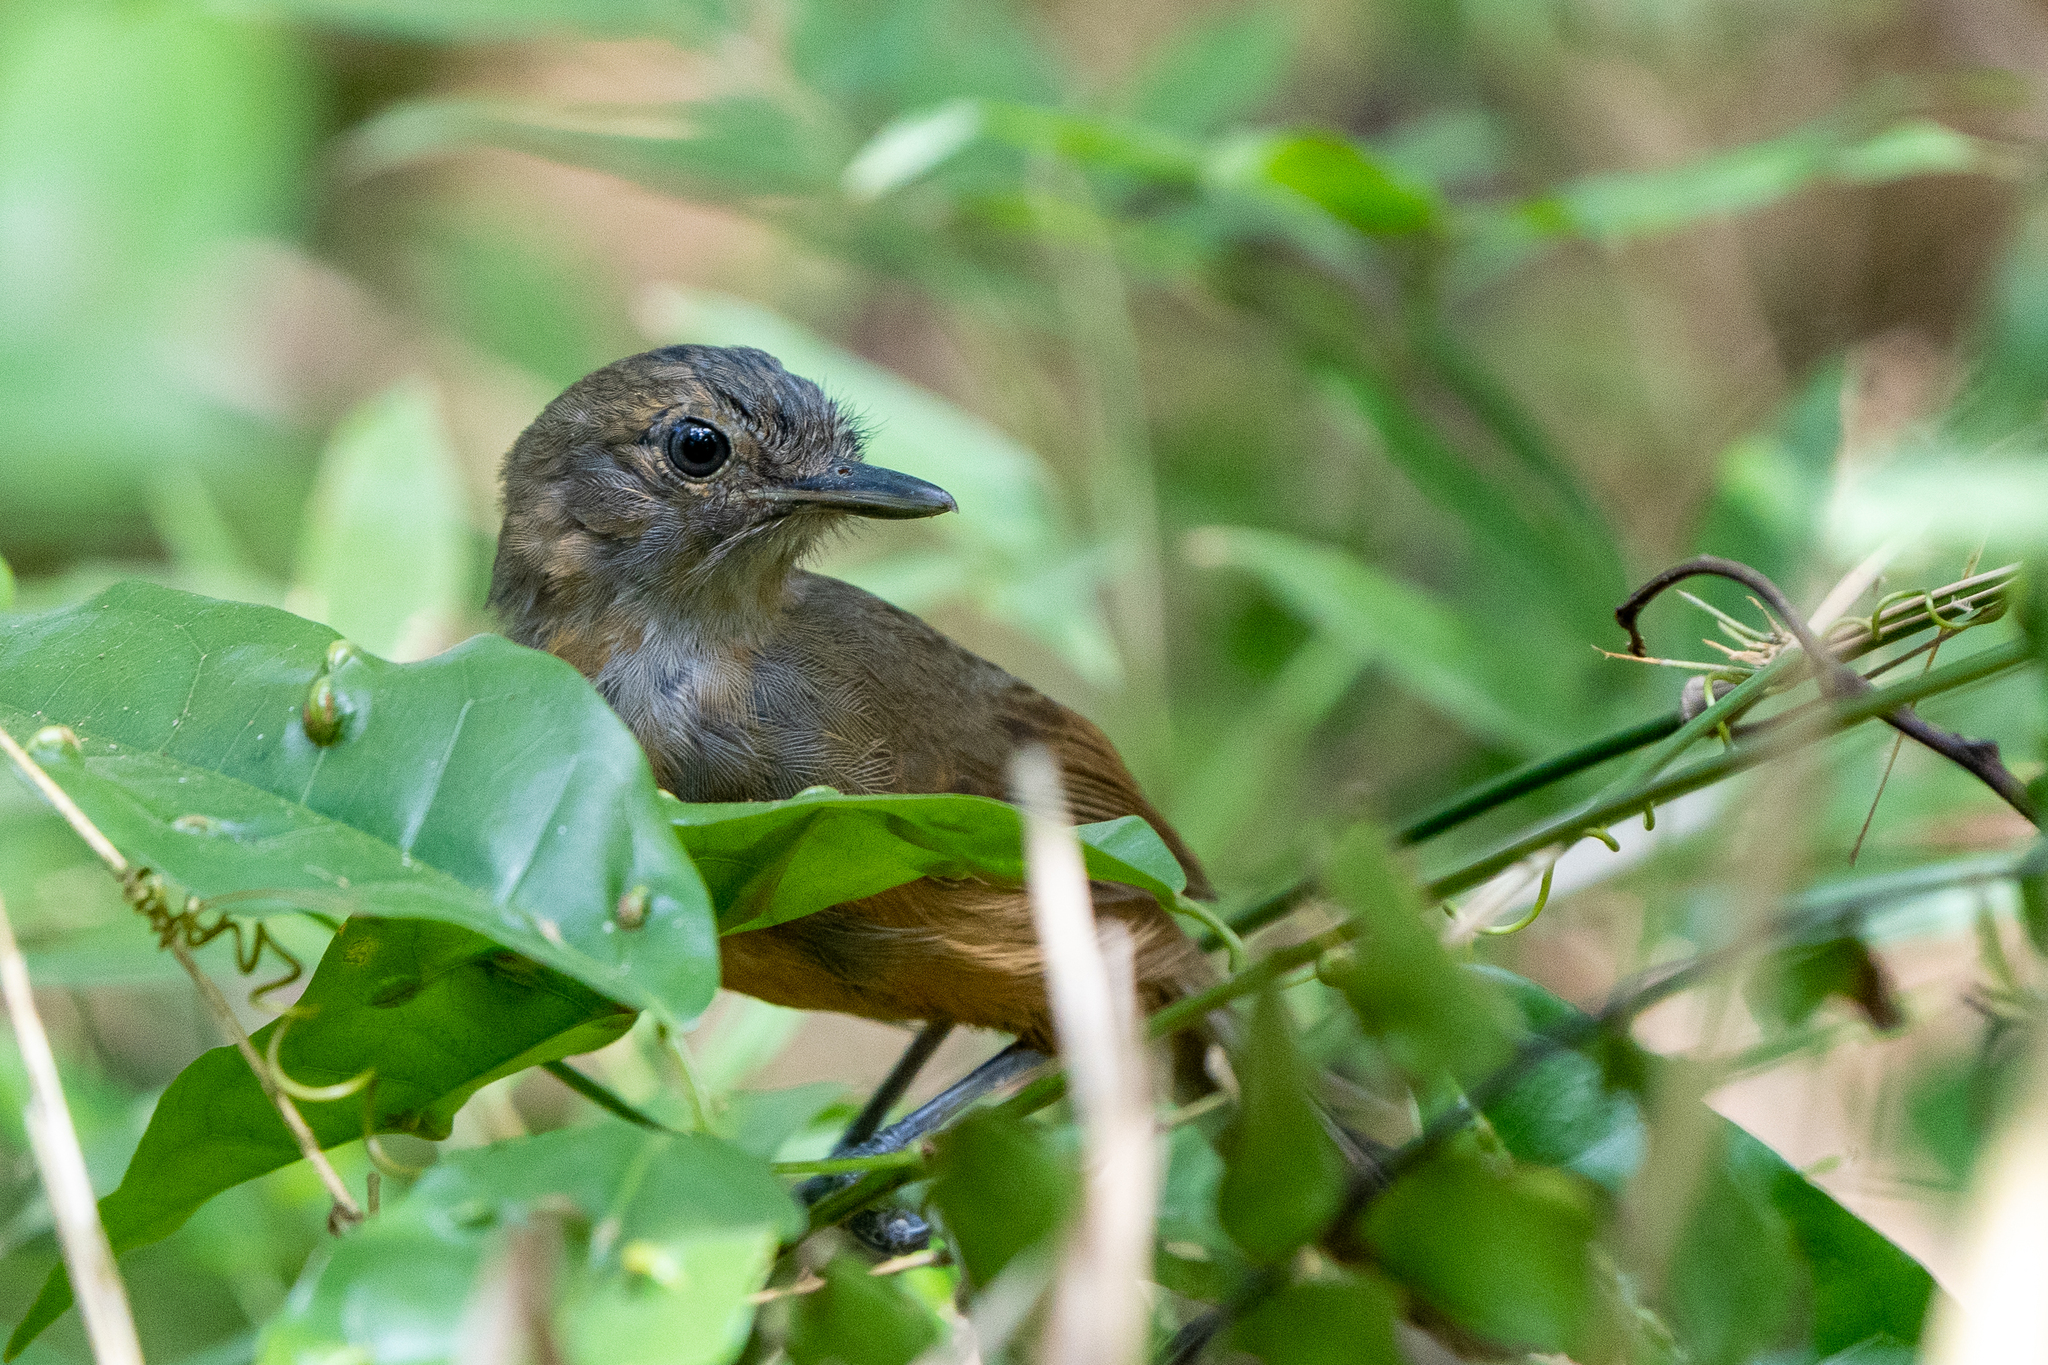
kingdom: Animalia
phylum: Chordata
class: Aves
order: Passeriformes
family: Thamnophilidae
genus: Cercomacra
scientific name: Cercomacra tyrannina
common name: Dusky antbird
